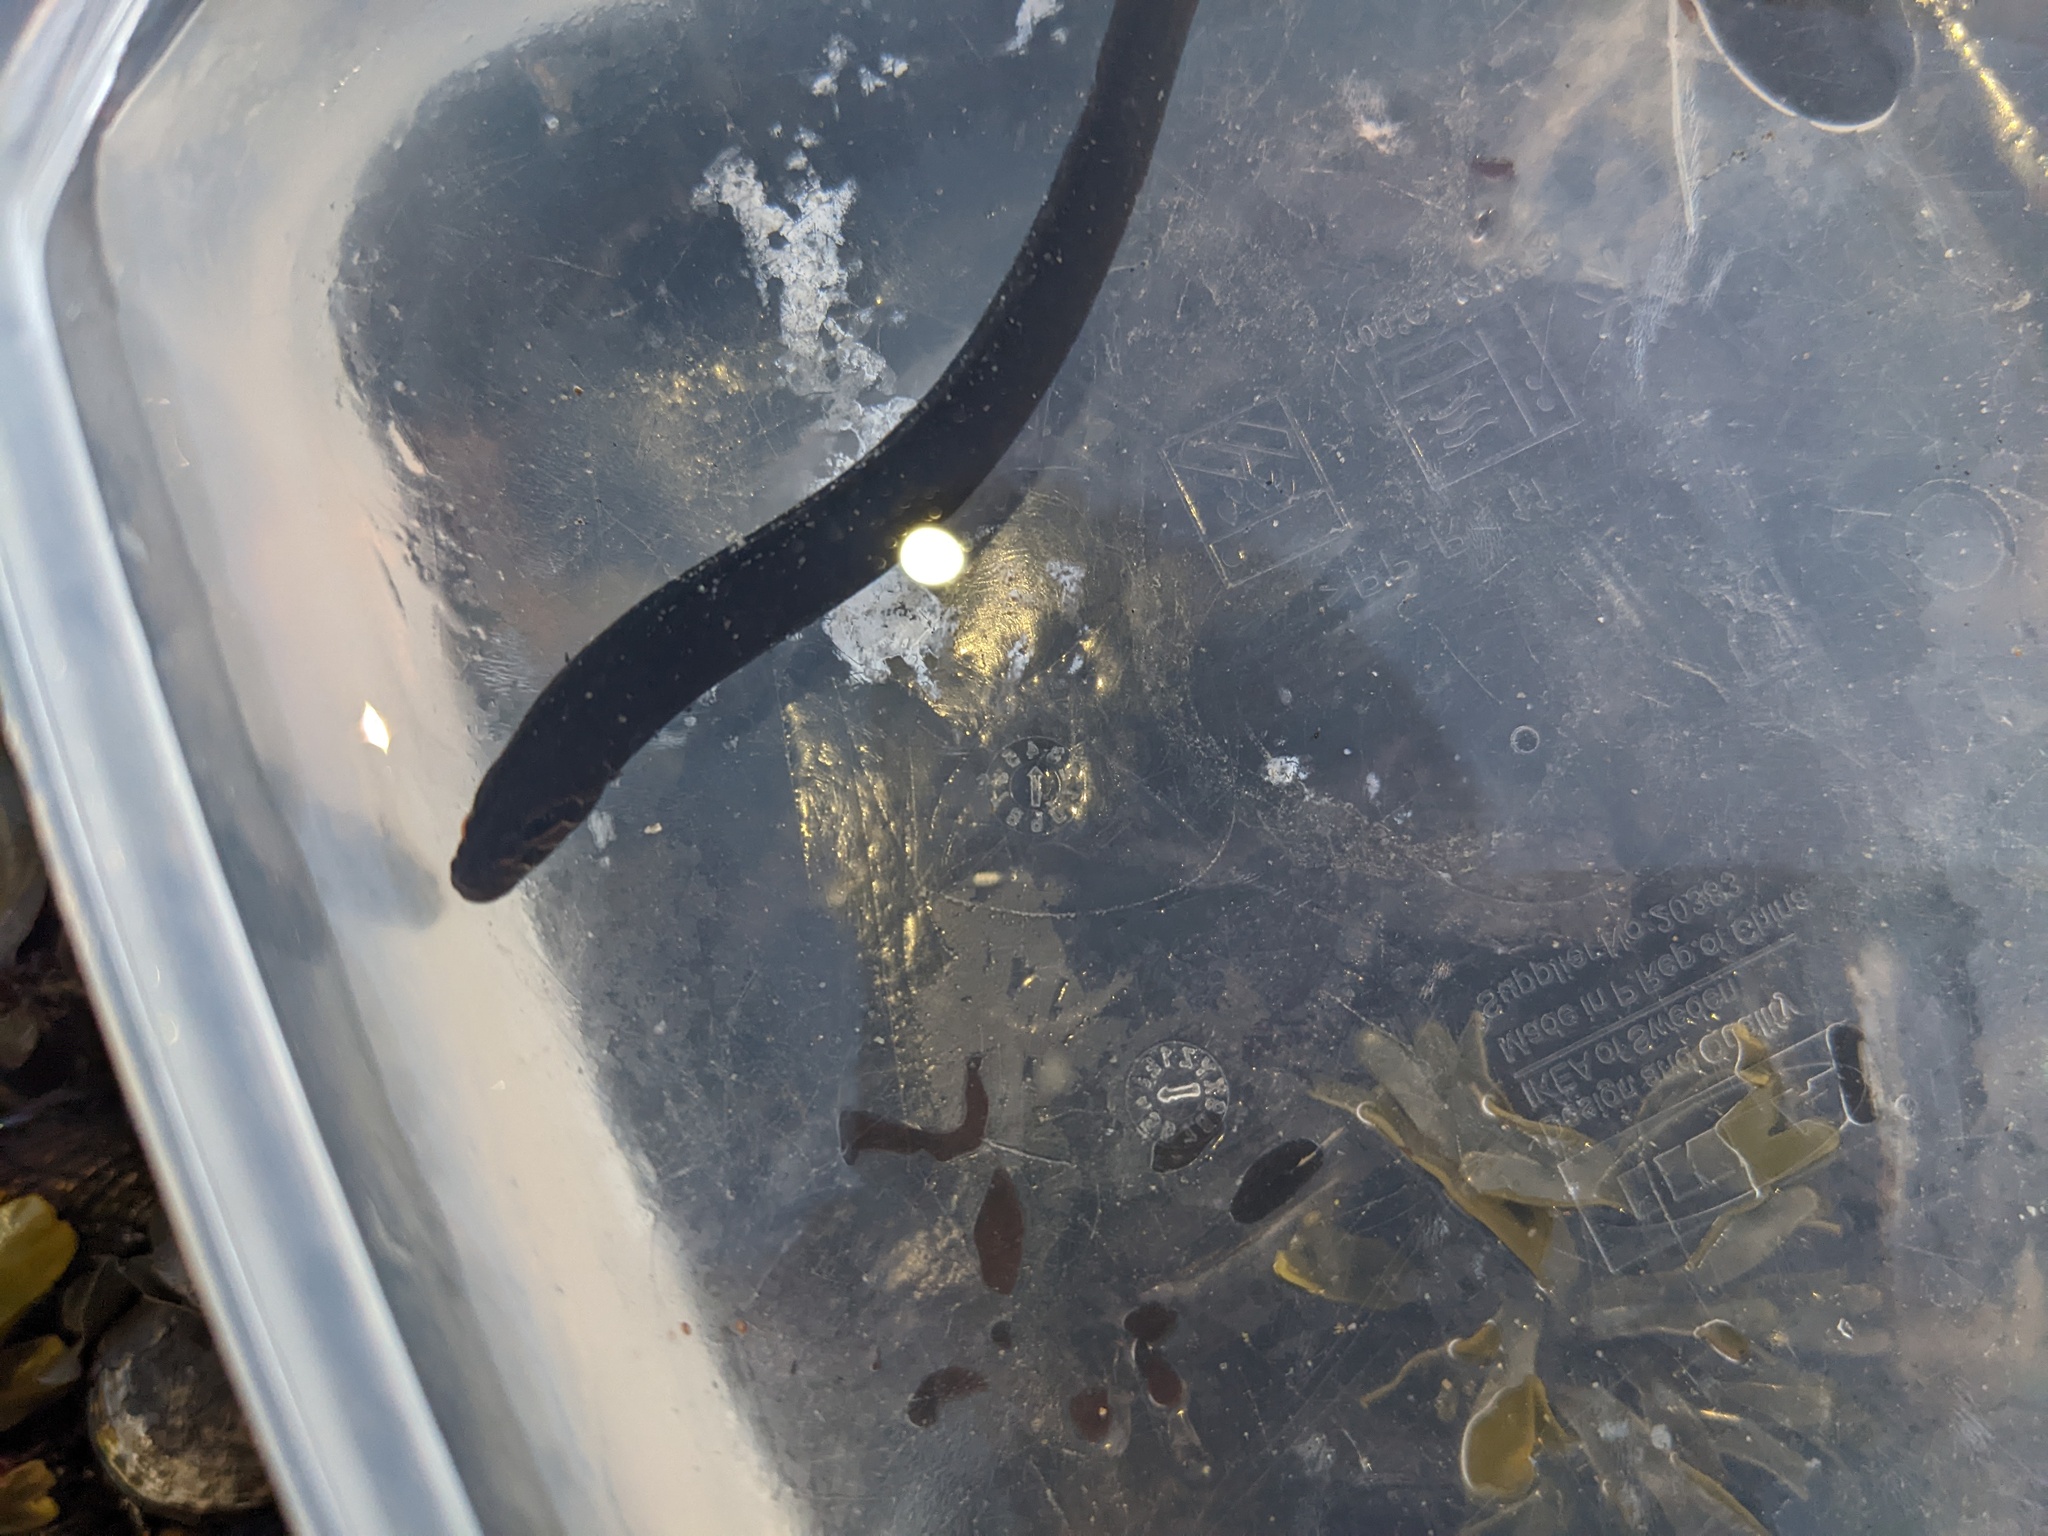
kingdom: Animalia
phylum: Chordata
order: Perciformes
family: Stichaeidae
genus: Xiphister
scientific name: Xiphister atropurpureus
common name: Black prickleback
